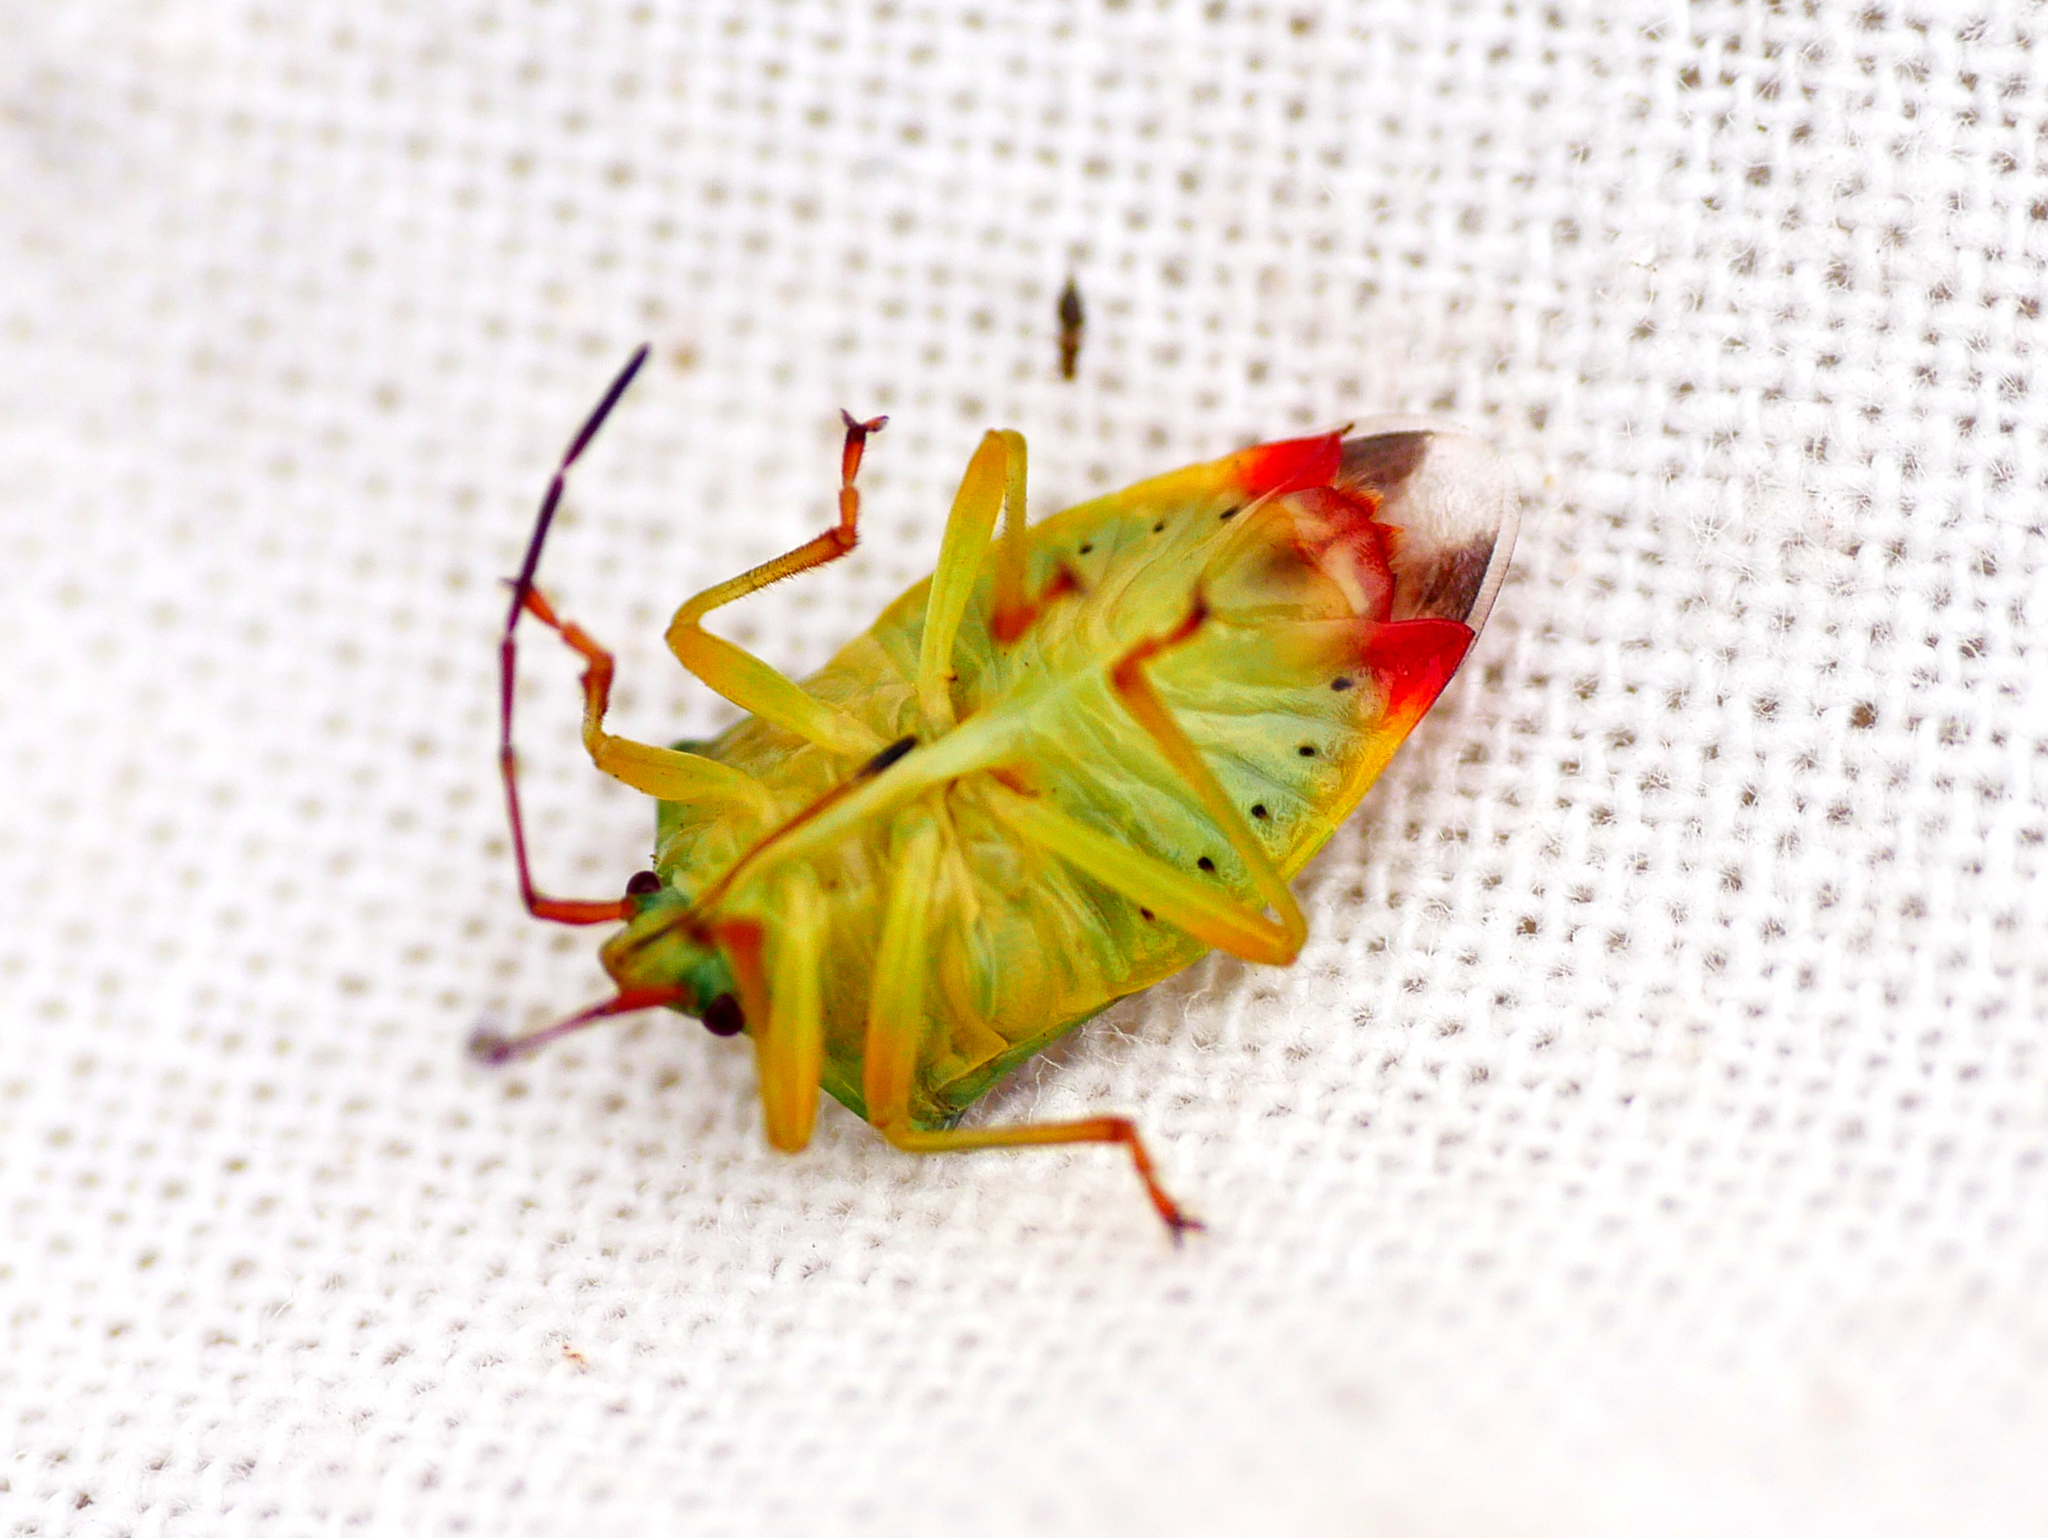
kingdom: Animalia
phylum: Arthropoda
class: Insecta
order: Hemiptera
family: Acanthosomatidae
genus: Elasmostethus
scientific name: Elasmostethus interstinctus
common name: Birch shieldbug
